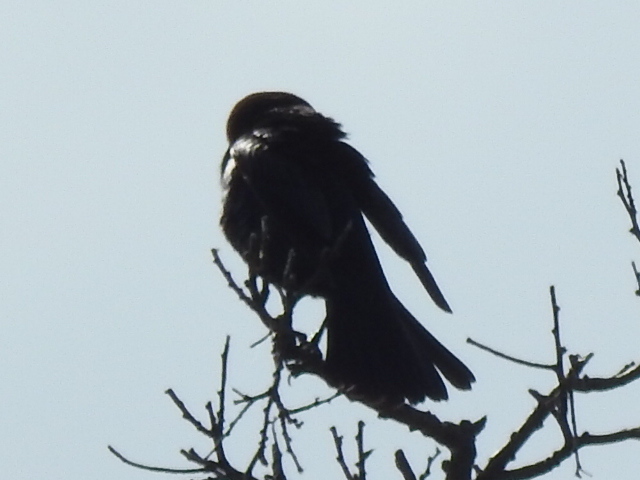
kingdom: Animalia
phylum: Chordata
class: Aves
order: Passeriformes
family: Icteridae
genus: Molothrus
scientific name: Molothrus ater
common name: Brown-headed cowbird
